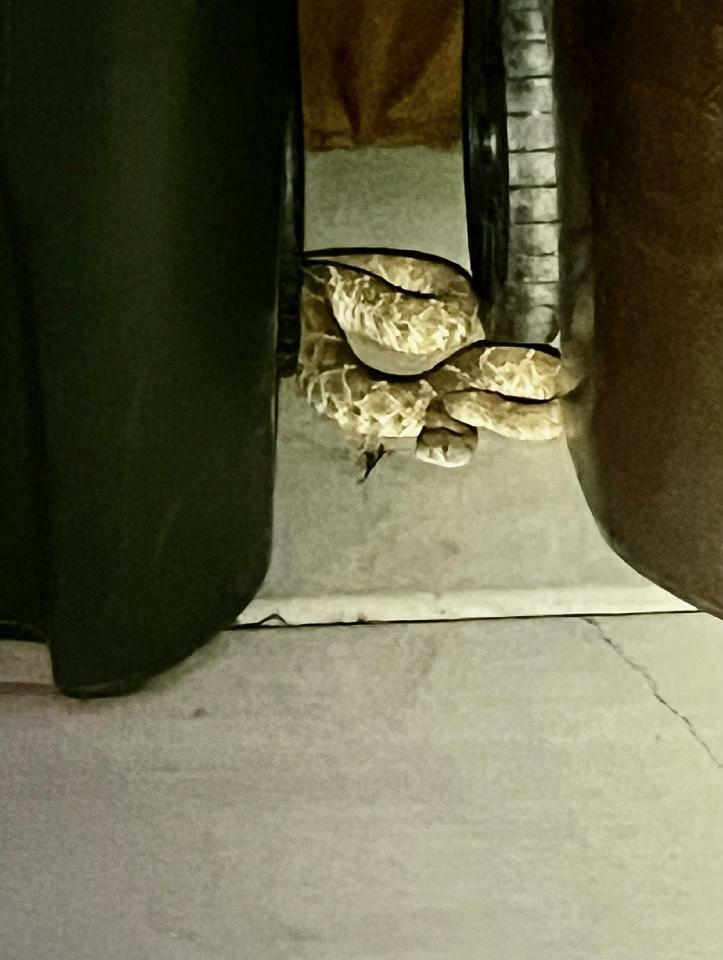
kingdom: Animalia
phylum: Chordata
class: Squamata
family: Viperidae
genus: Crotalus
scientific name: Crotalus ruber
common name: Red diamond rattlesnake
